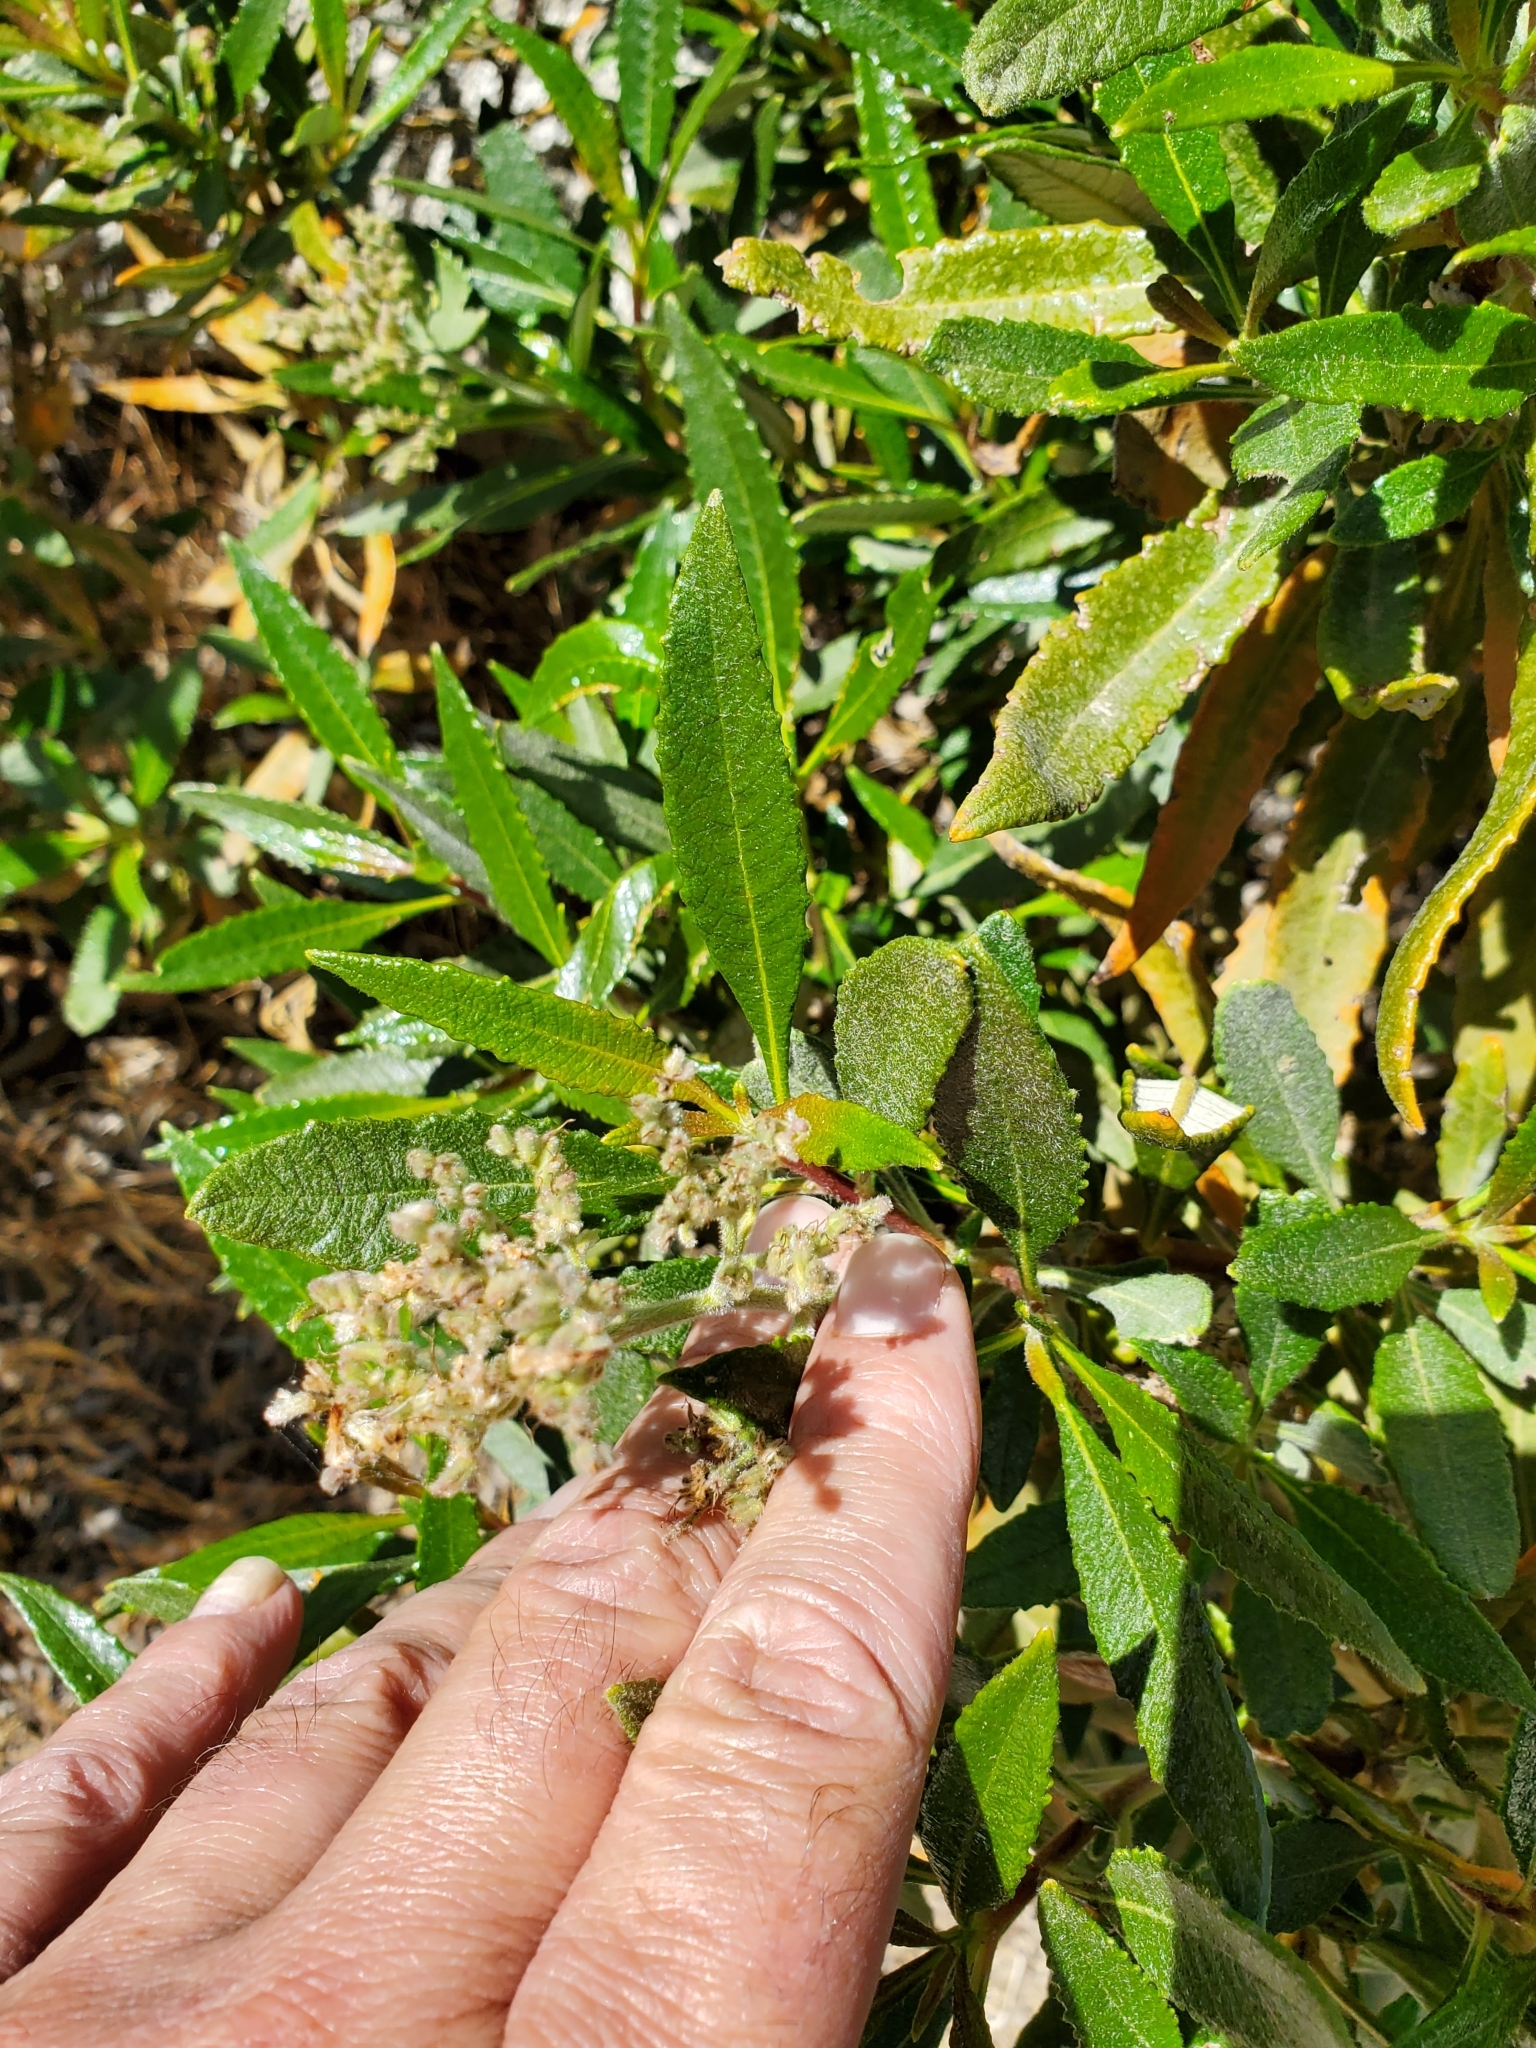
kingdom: Plantae
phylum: Tracheophyta
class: Magnoliopsida
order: Boraginales
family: Namaceae
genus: Eriodictyon
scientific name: Eriodictyon trichocalyx
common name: Hairy yerba-santa
